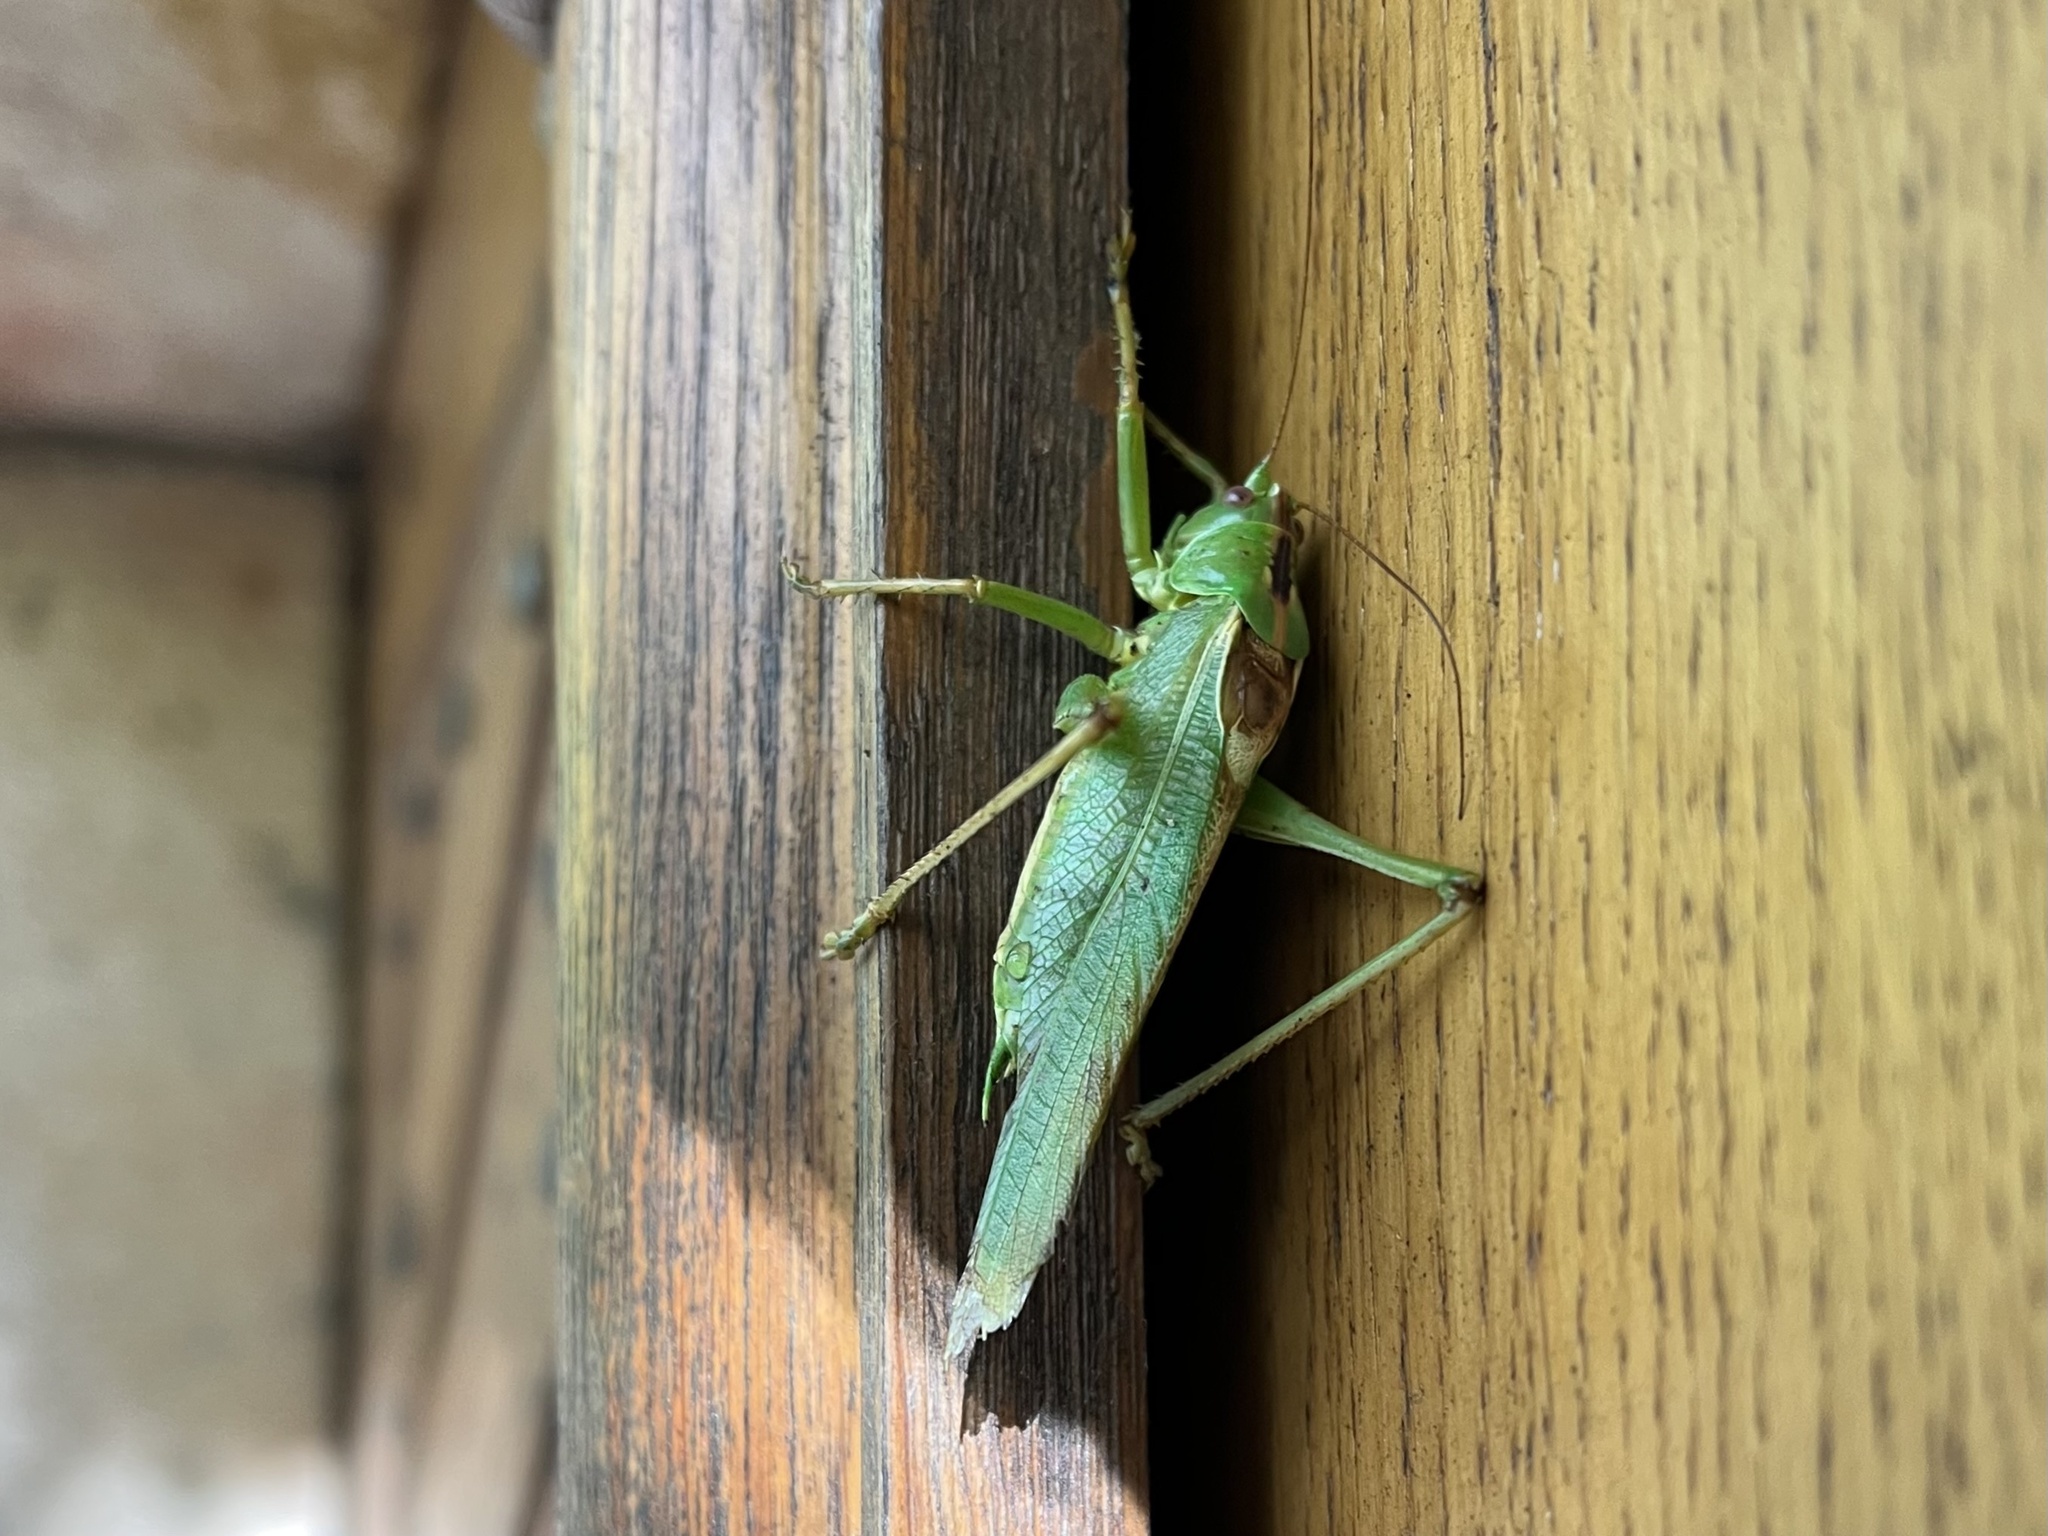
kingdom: Animalia
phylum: Arthropoda
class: Insecta
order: Orthoptera
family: Tettigoniidae
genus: Tettigonia
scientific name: Tettigonia viridissima
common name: Great green bush-cricket
